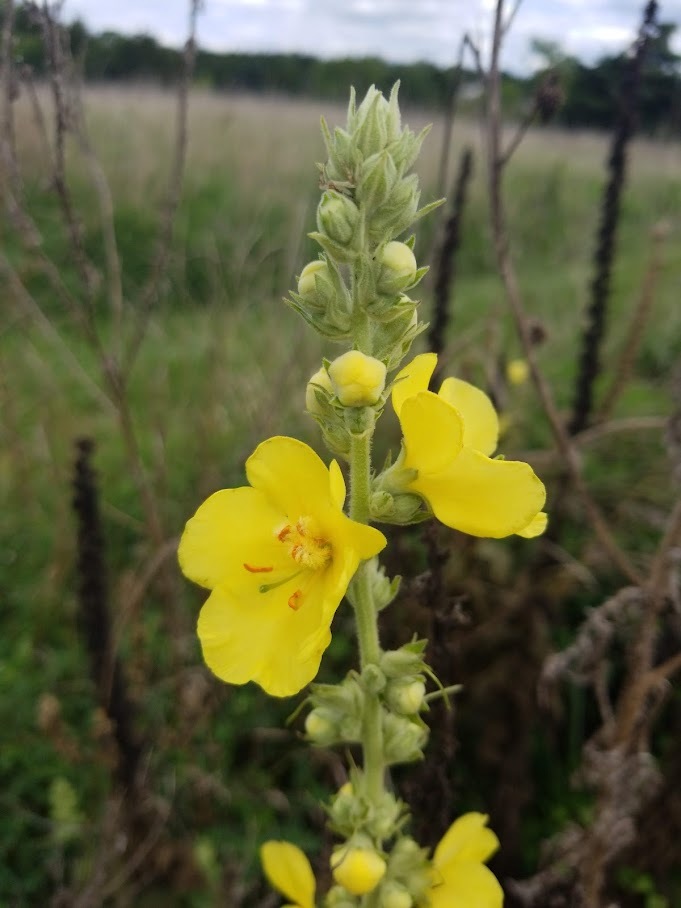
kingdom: Plantae
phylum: Tracheophyta
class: Magnoliopsida
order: Lamiales
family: Scrophulariaceae
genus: Verbascum
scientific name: Verbascum phlomoides
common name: Orange mullein
